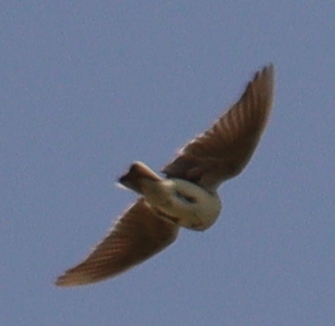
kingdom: Animalia
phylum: Chordata
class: Aves
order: Passeriformes
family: Alaudidae
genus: Alauda
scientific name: Alauda arvensis
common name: Eurasian skylark
